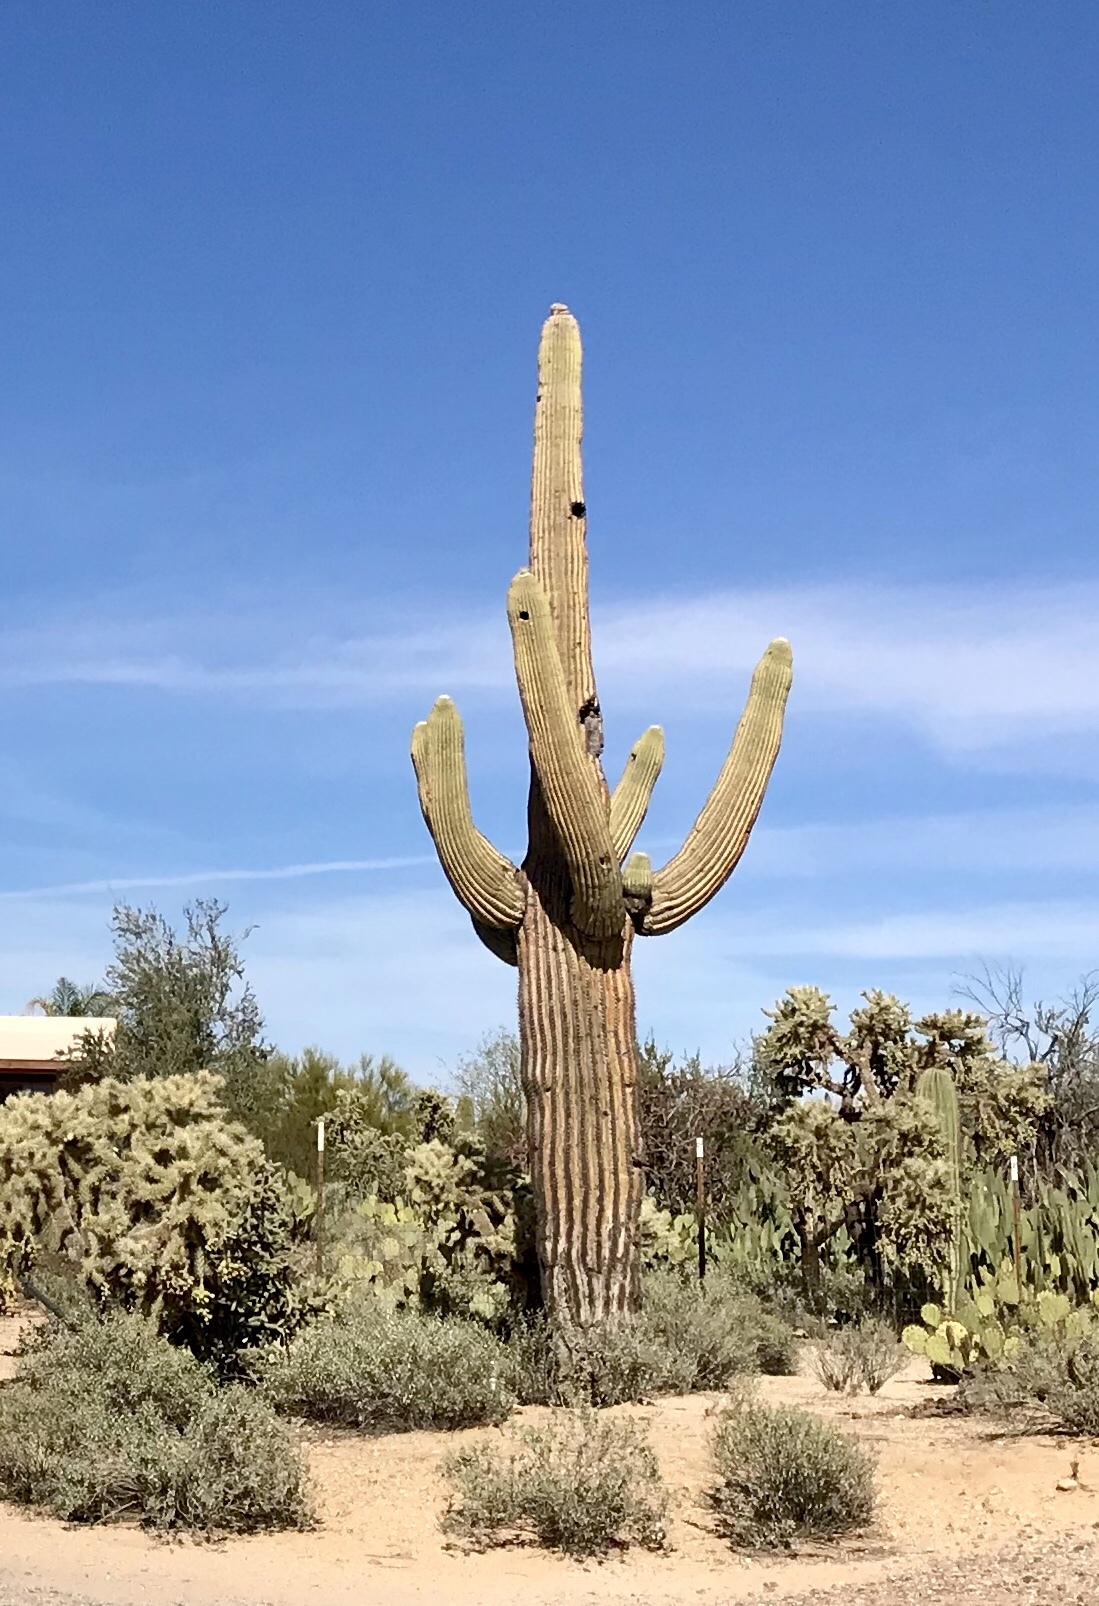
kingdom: Plantae
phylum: Tracheophyta
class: Magnoliopsida
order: Caryophyllales
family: Cactaceae
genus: Carnegiea
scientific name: Carnegiea gigantea
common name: Saguaro
